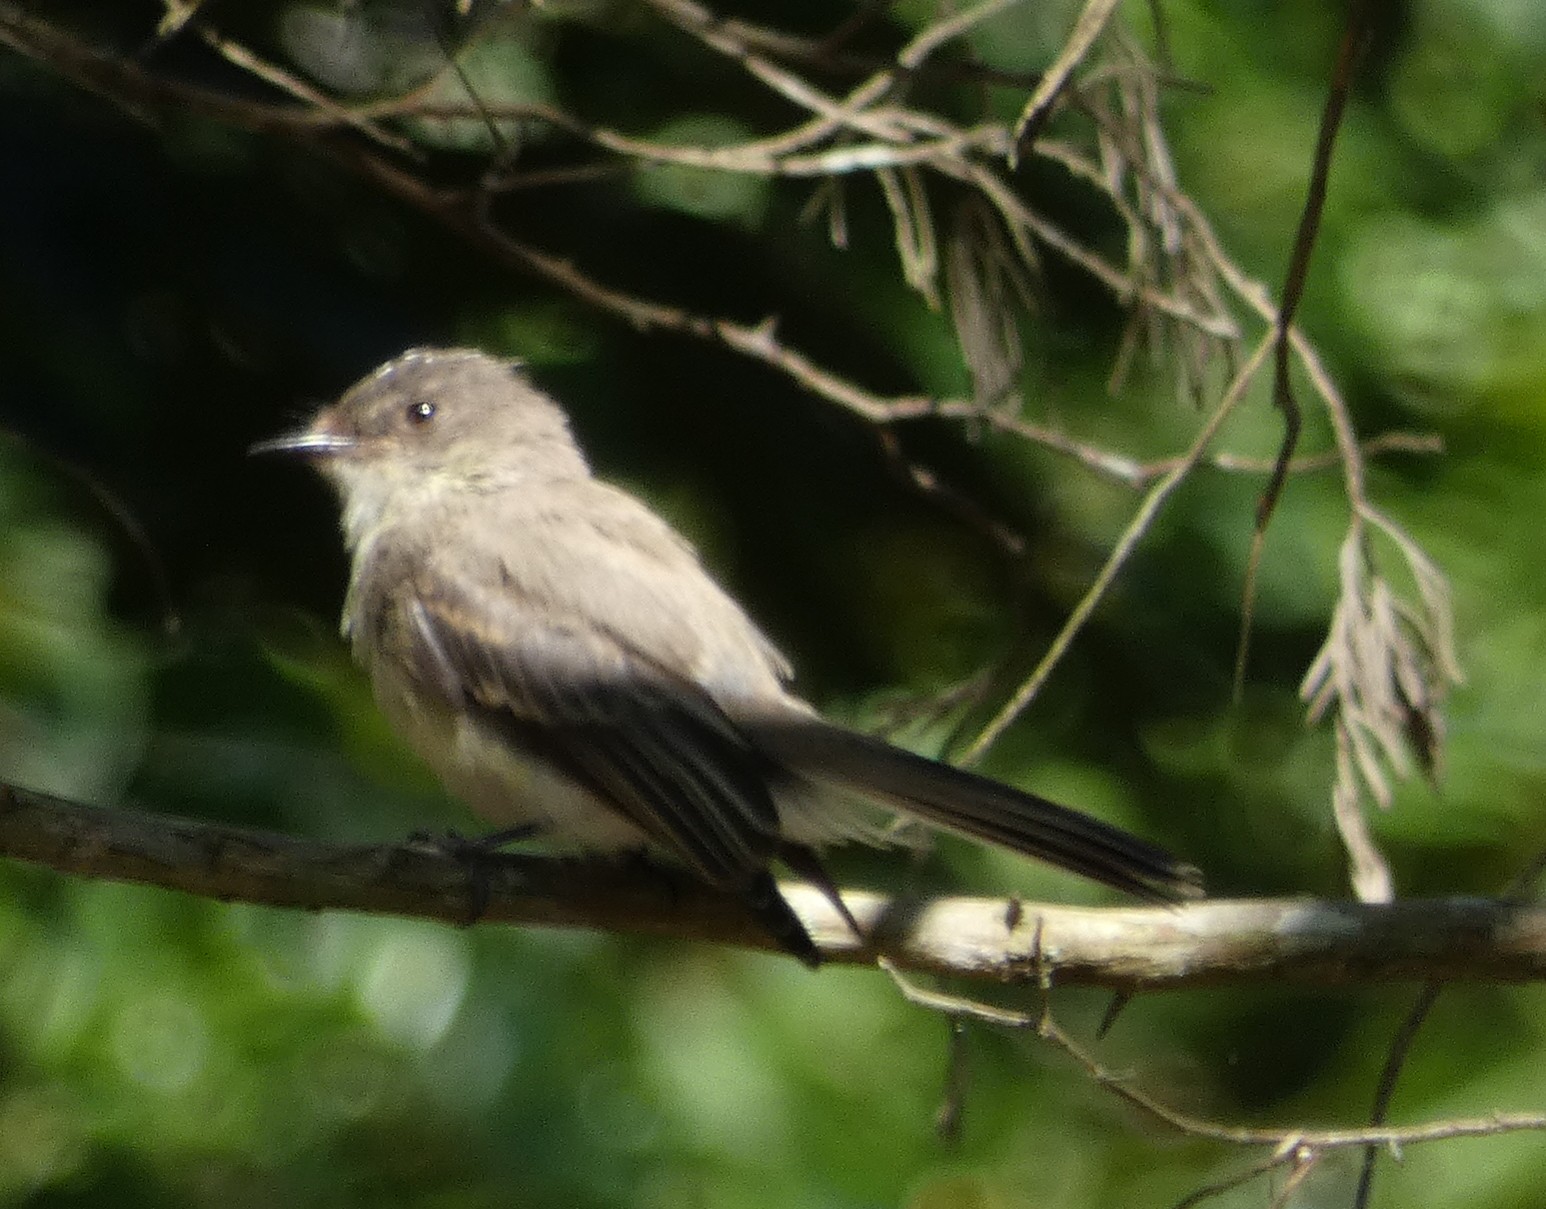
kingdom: Animalia
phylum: Chordata
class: Aves
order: Passeriformes
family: Tyrannidae
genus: Sayornis
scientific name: Sayornis phoebe
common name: Eastern phoebe
